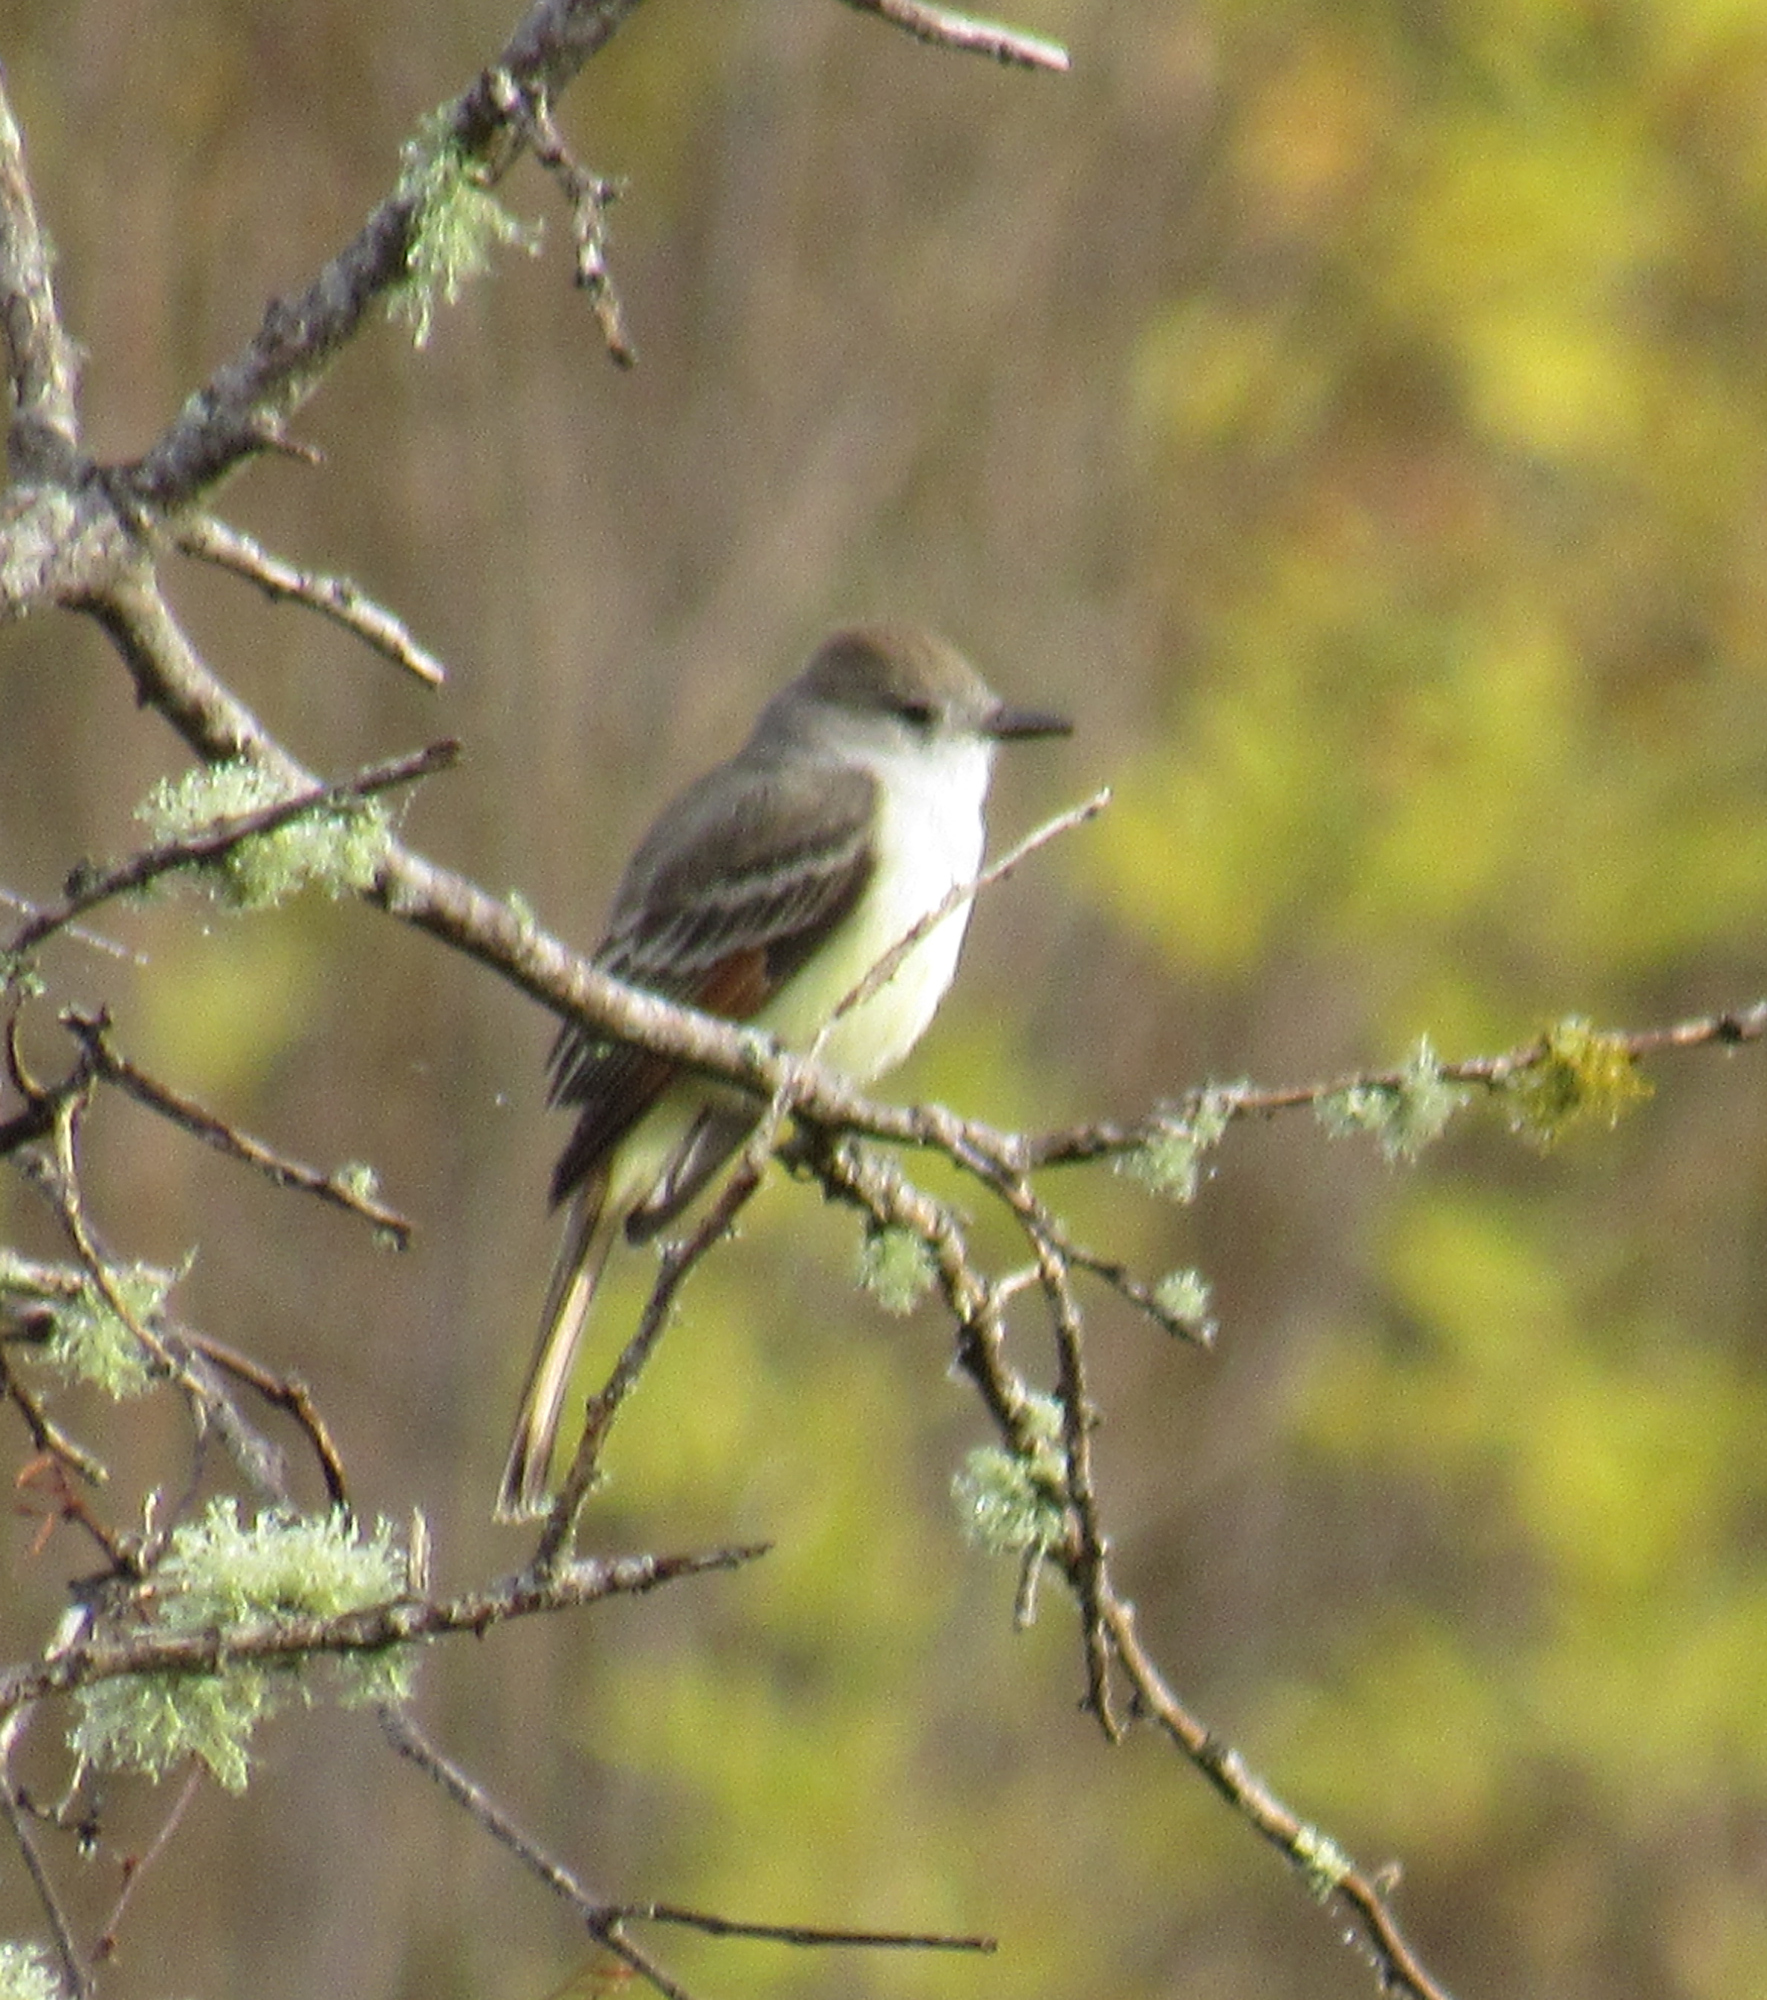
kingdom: Animalia
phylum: Chordata
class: Aves
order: Passeriformes
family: Tyrannidae
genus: Myiarchus
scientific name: Myiarchus cinerascens
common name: Ash-throated flycatcher
